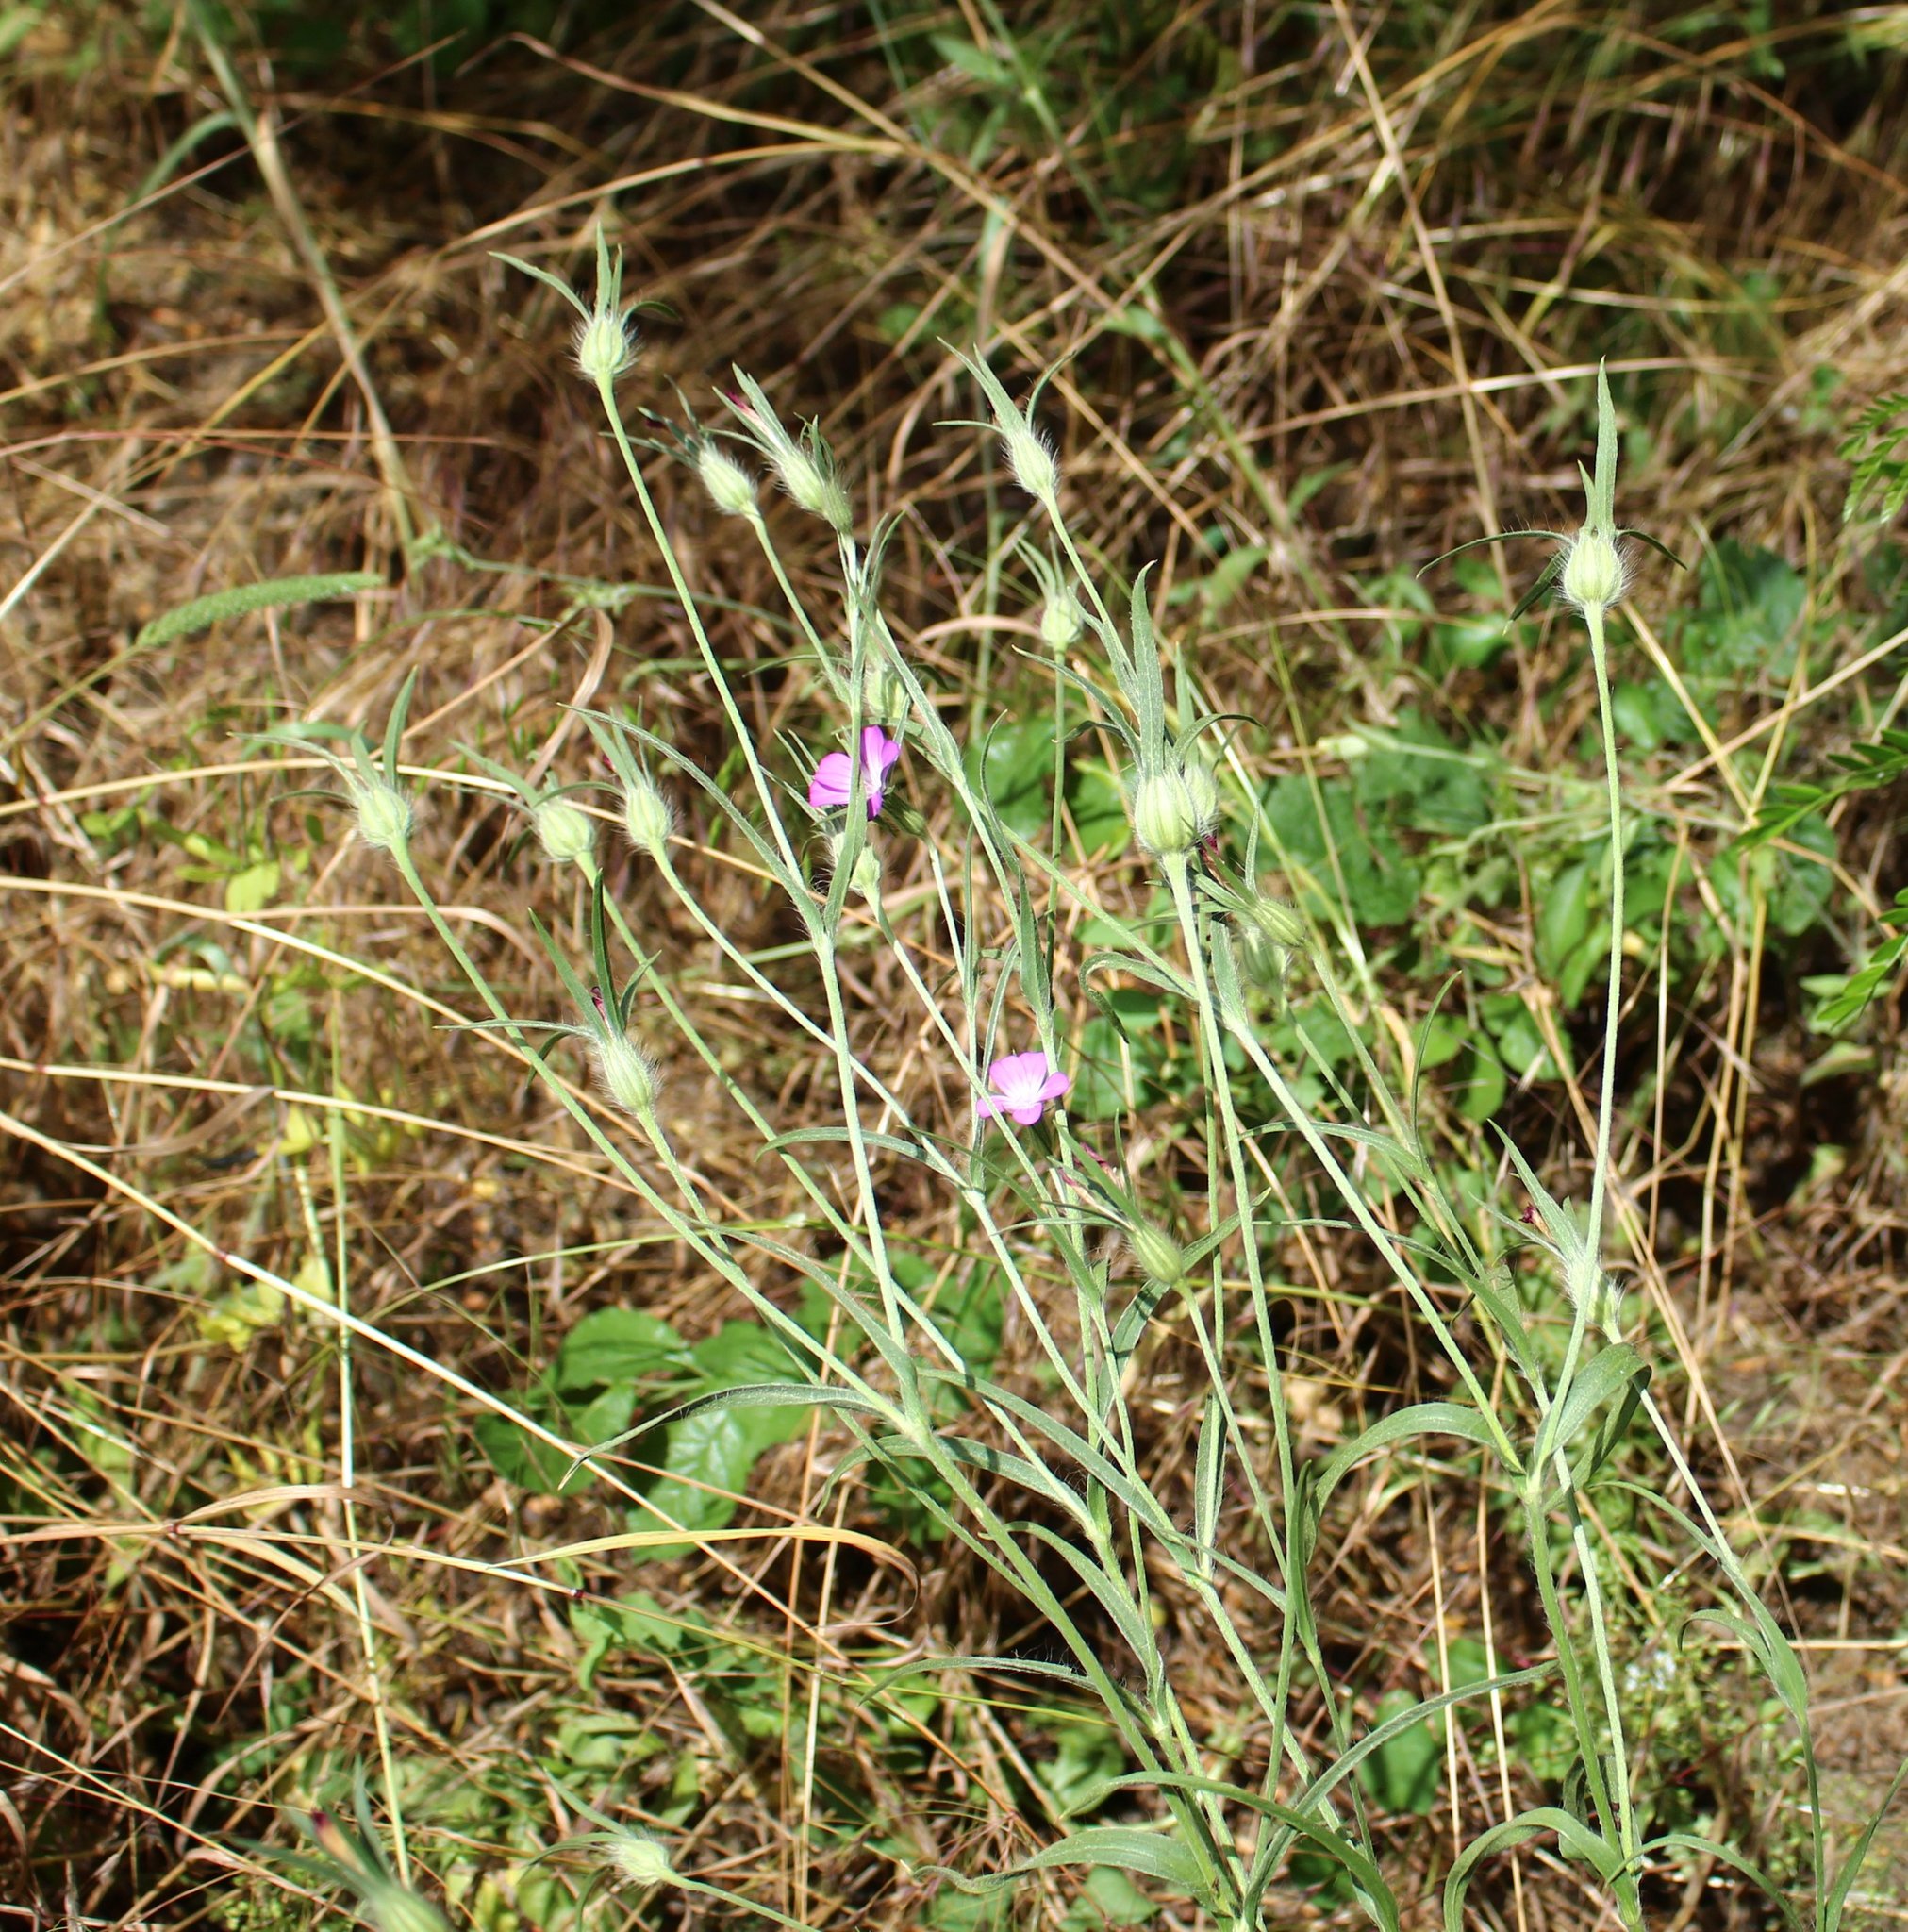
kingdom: Plantae
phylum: Tracheophyta
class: Magnoliopsida
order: Caryophyllales
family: Caryophyllaceae
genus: Agrostemma
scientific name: Agrostemma githago
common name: Common corncockle
